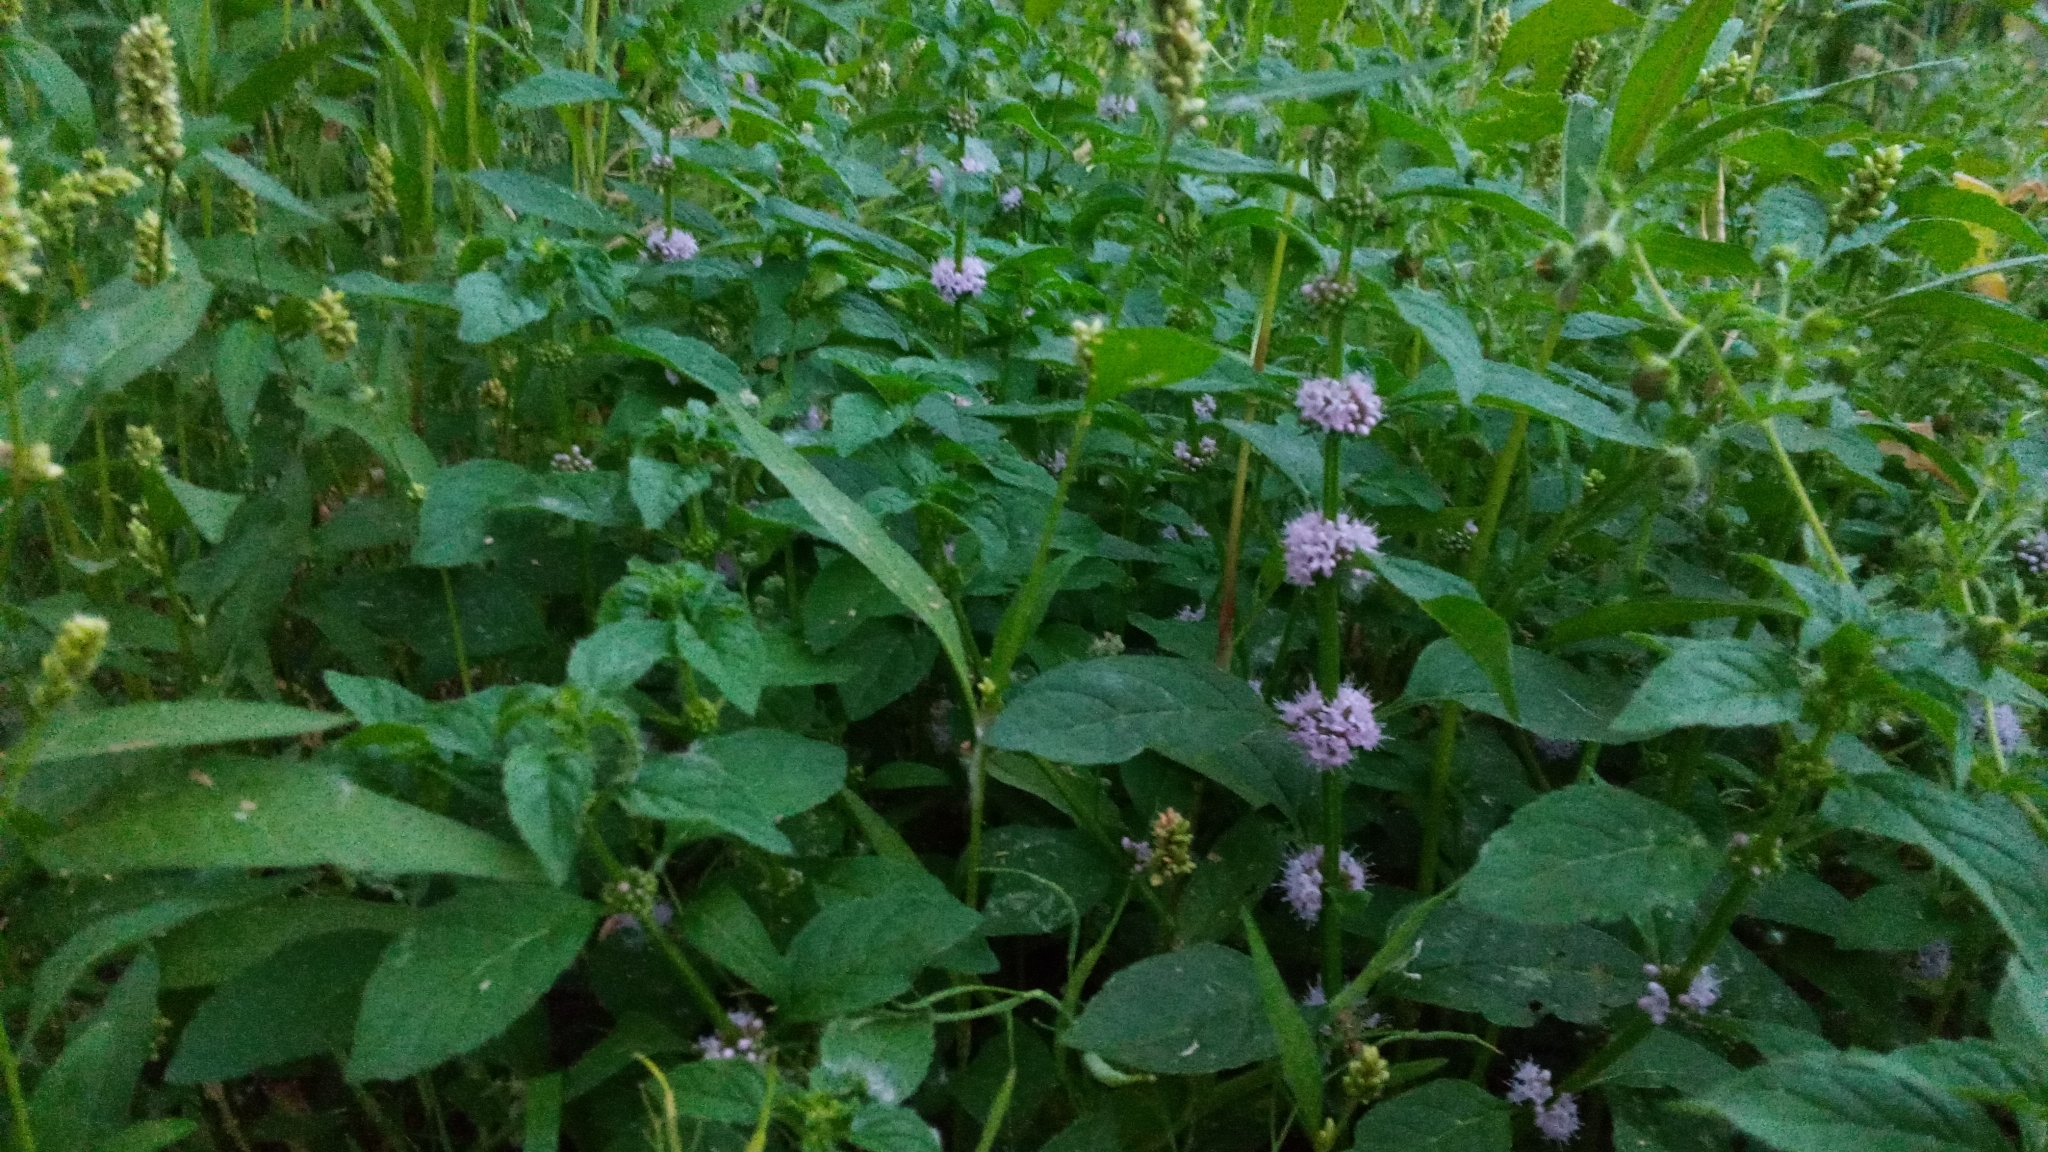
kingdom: Plantae
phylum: Tracheophyta
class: Magnoliopsida
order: Lamiales
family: Lamiaceae
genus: Mentha
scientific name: Mentha arvensis
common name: Corn mint
